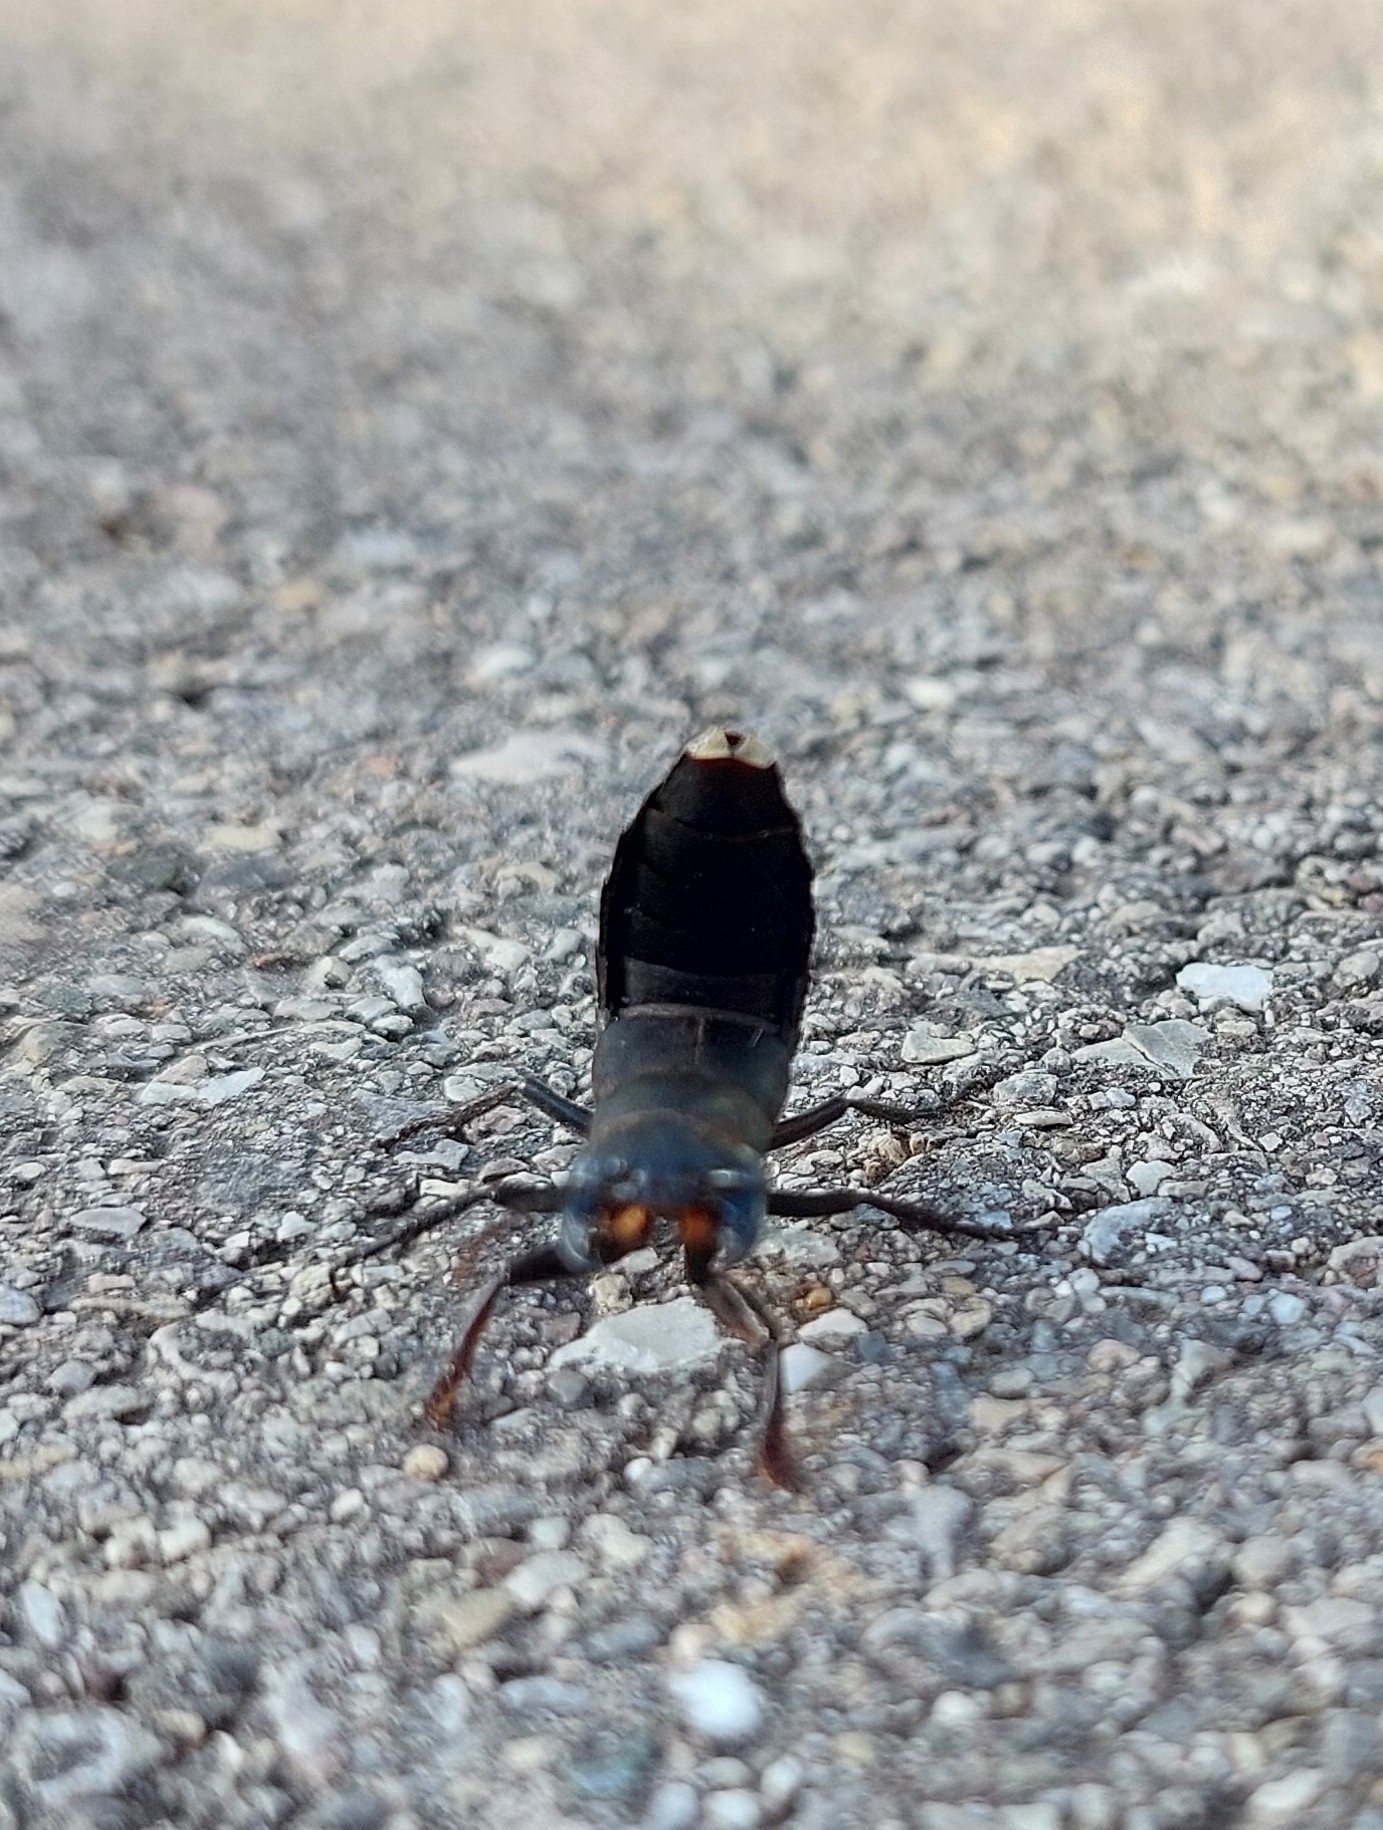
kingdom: Animalia
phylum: Arthropoda
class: Insecta
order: Coleoptera
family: Staphylinidae
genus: Ocypus
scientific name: Ocypus olens
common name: Devil's coach-horse
